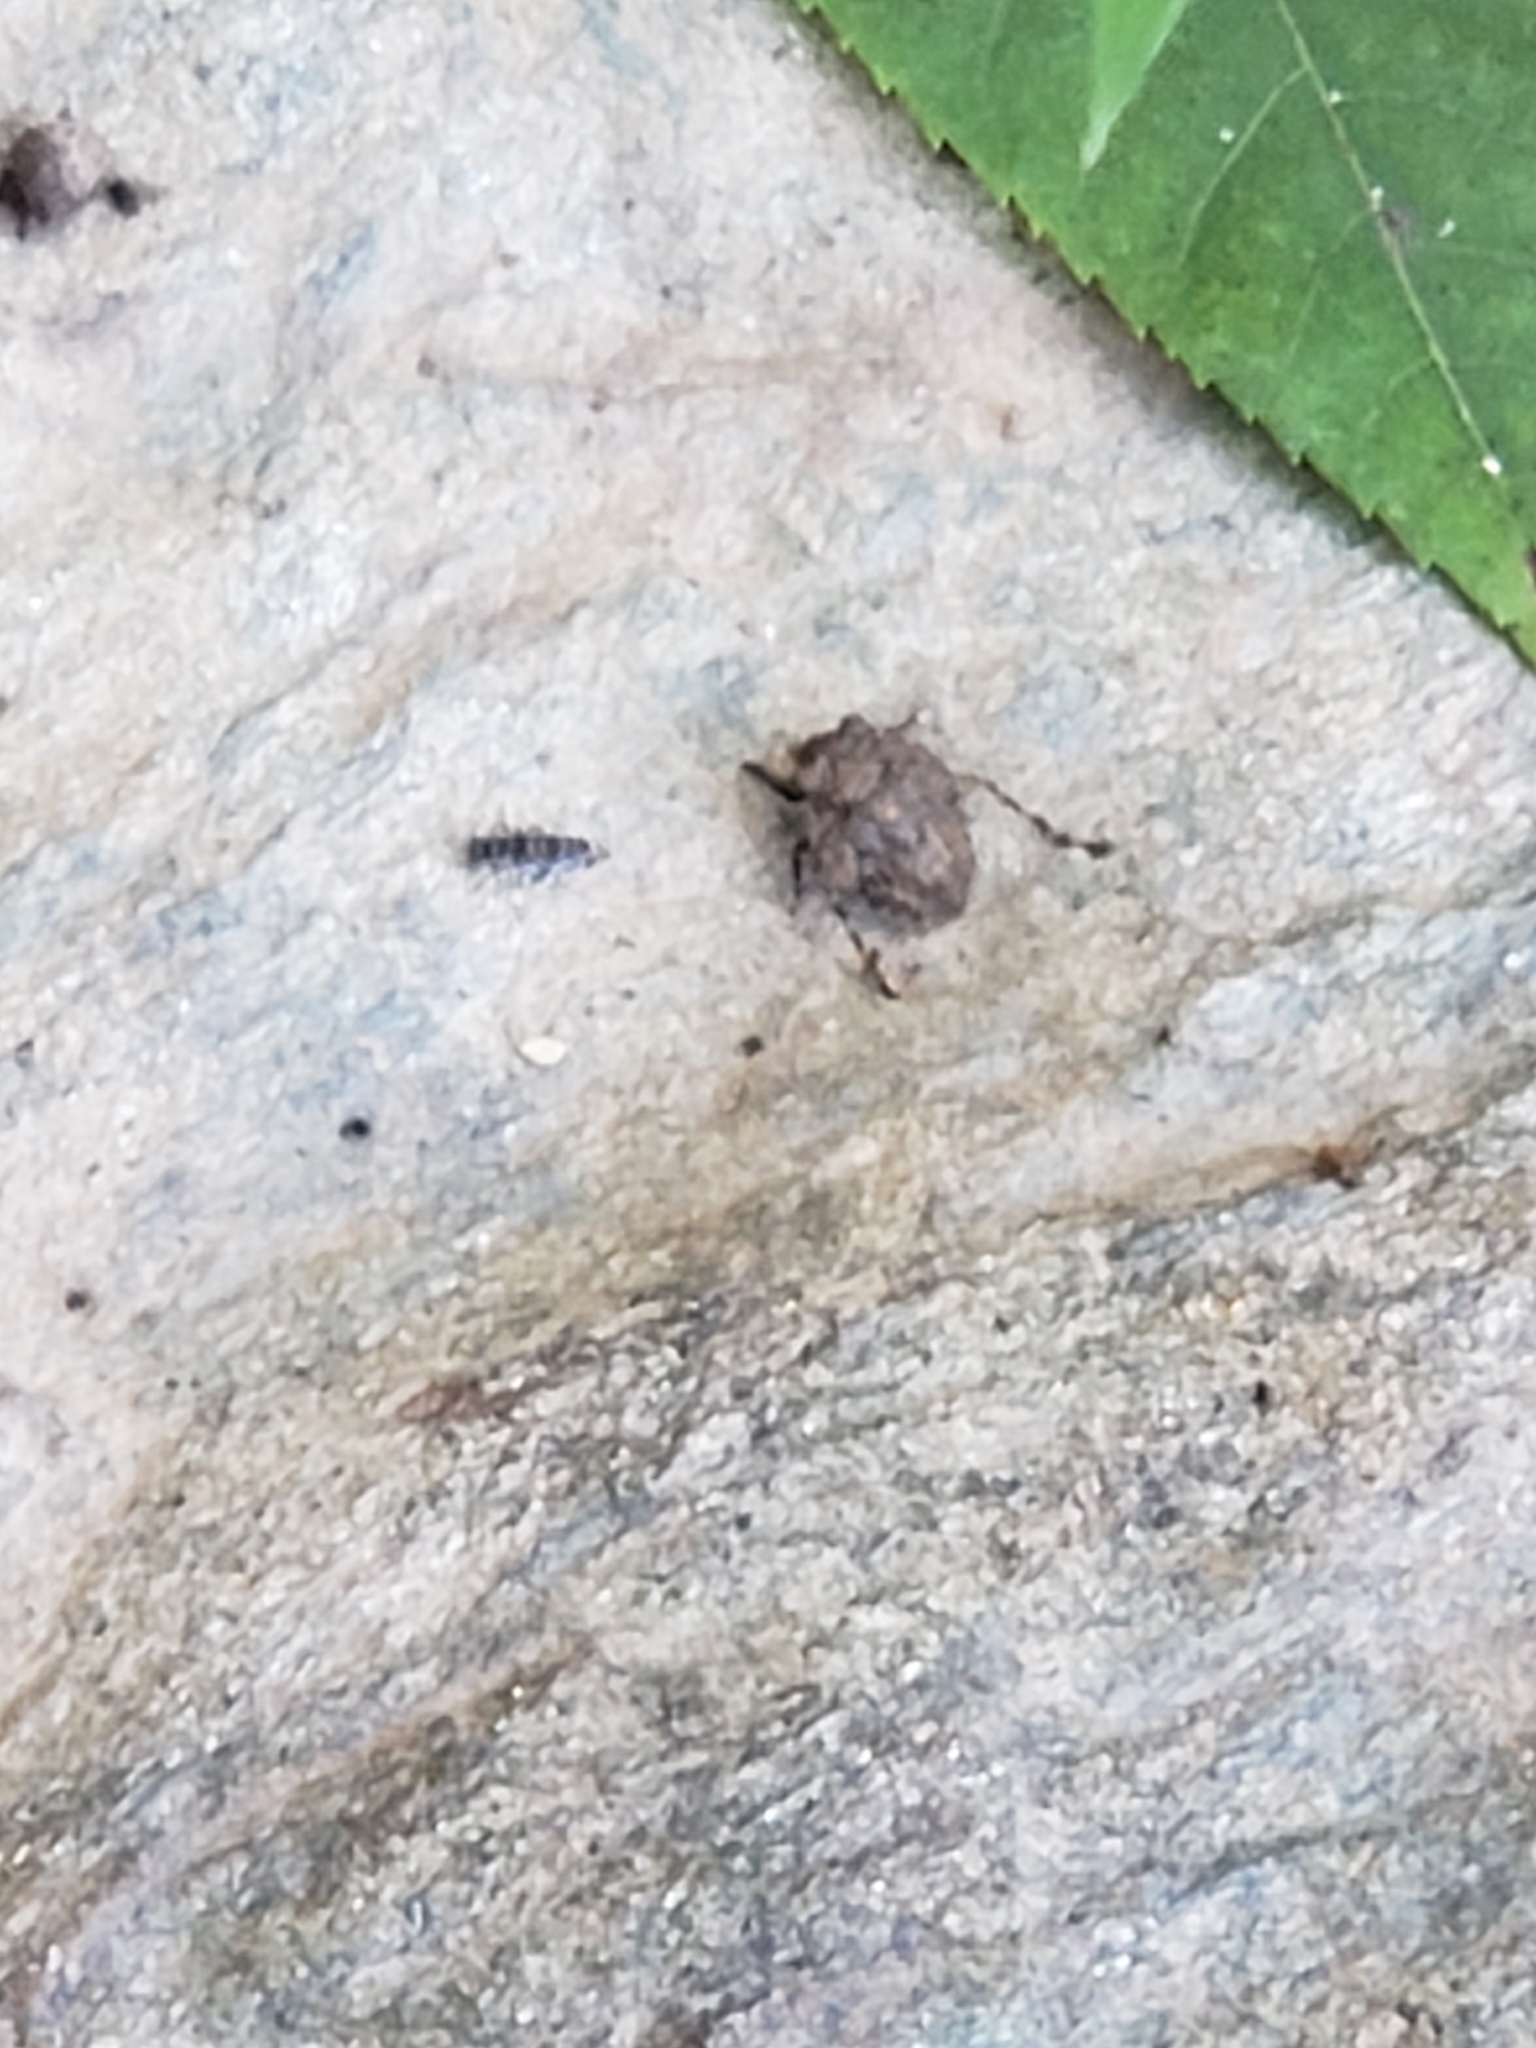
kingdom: Animalia
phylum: Arthropoda
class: Insecta
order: Hemiptera
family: Gelastocoridae
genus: Gelastocoris
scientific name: Gelastocoris oculatus
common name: Toad bug
